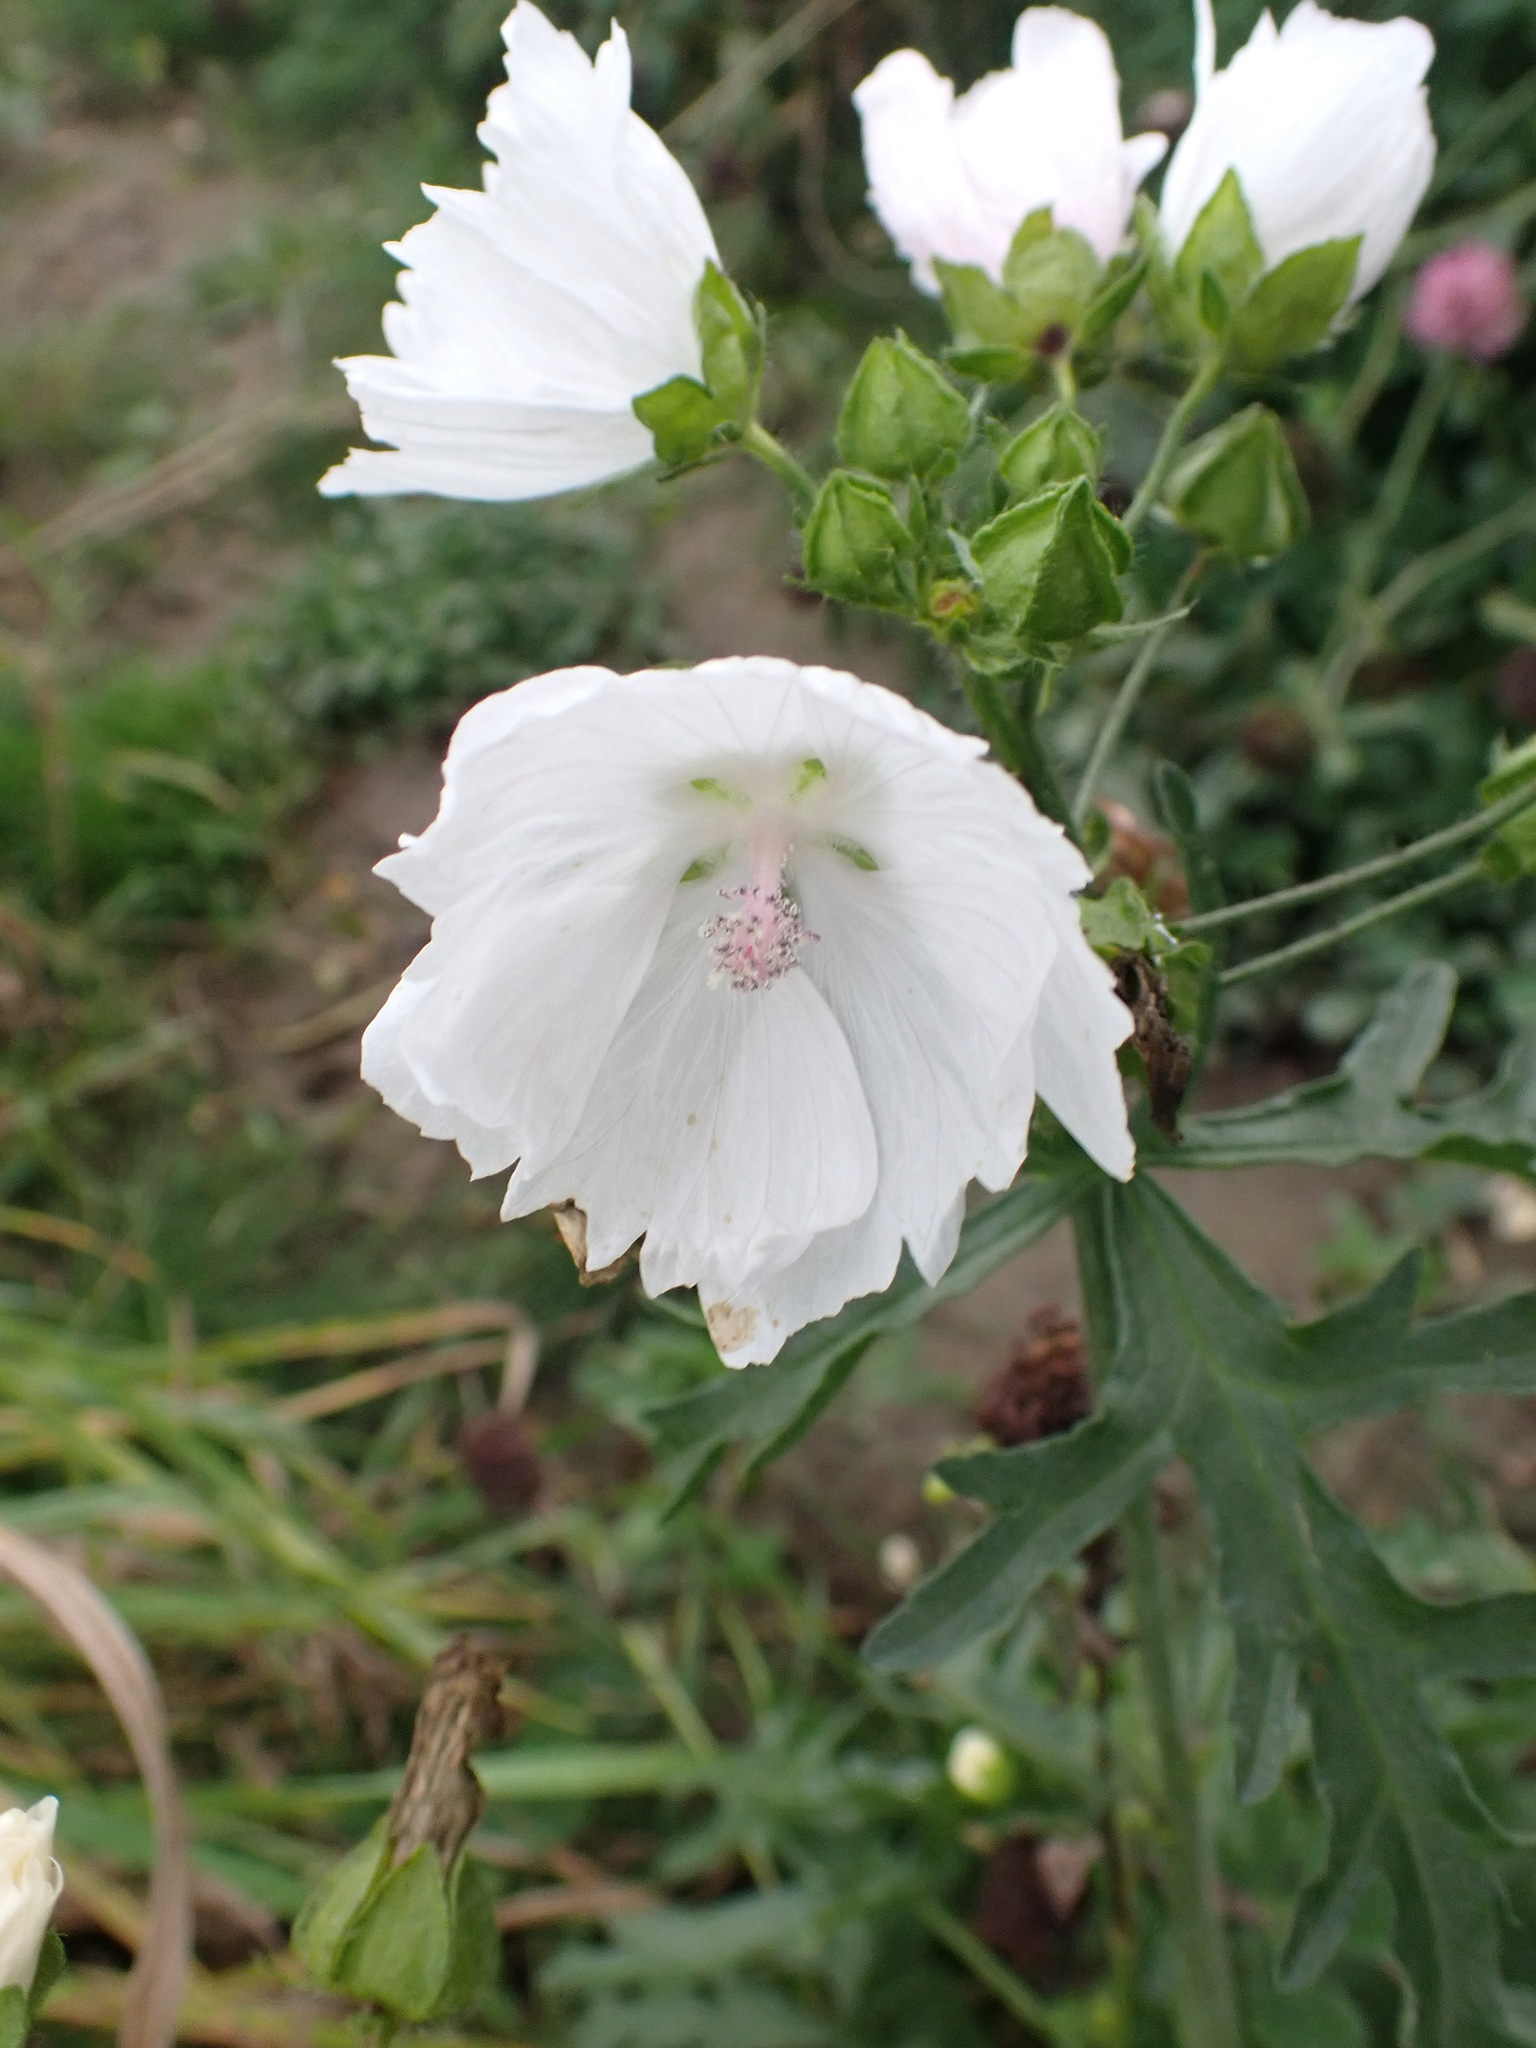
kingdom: Plantae
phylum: Tracheophyta
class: Magnoliopsida
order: Malvales
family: Malvaceae
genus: Malva
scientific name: Malva moschata
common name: Musk mallow
